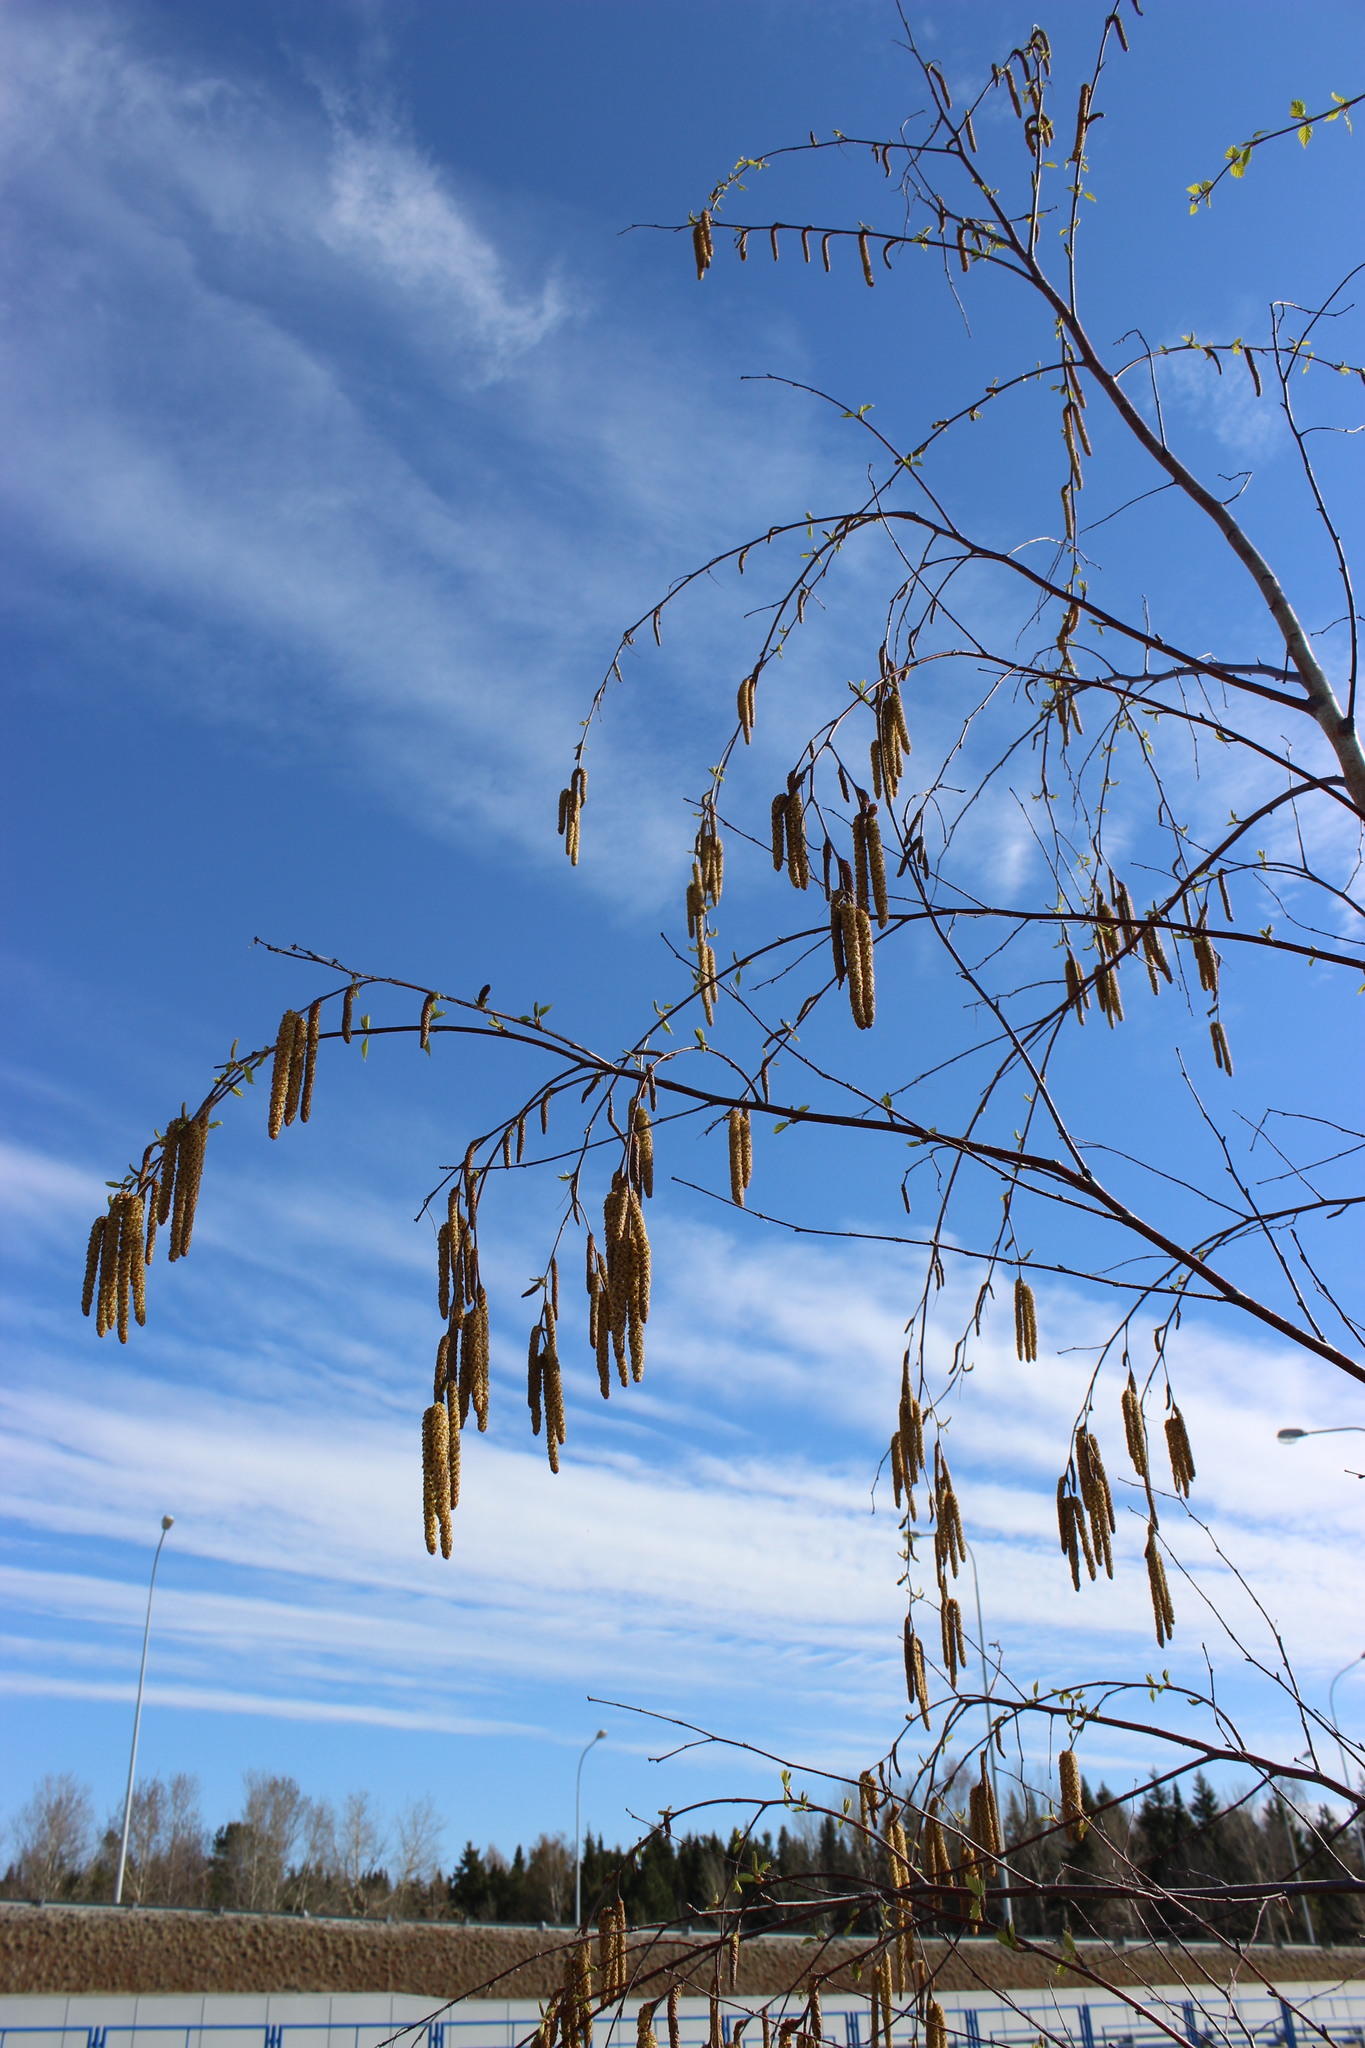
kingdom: Plantae
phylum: Tracheophyta
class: Magnoliopsida
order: Fagales
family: Betulaceae
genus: Betula
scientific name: Betula pubescens
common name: Downy birch
